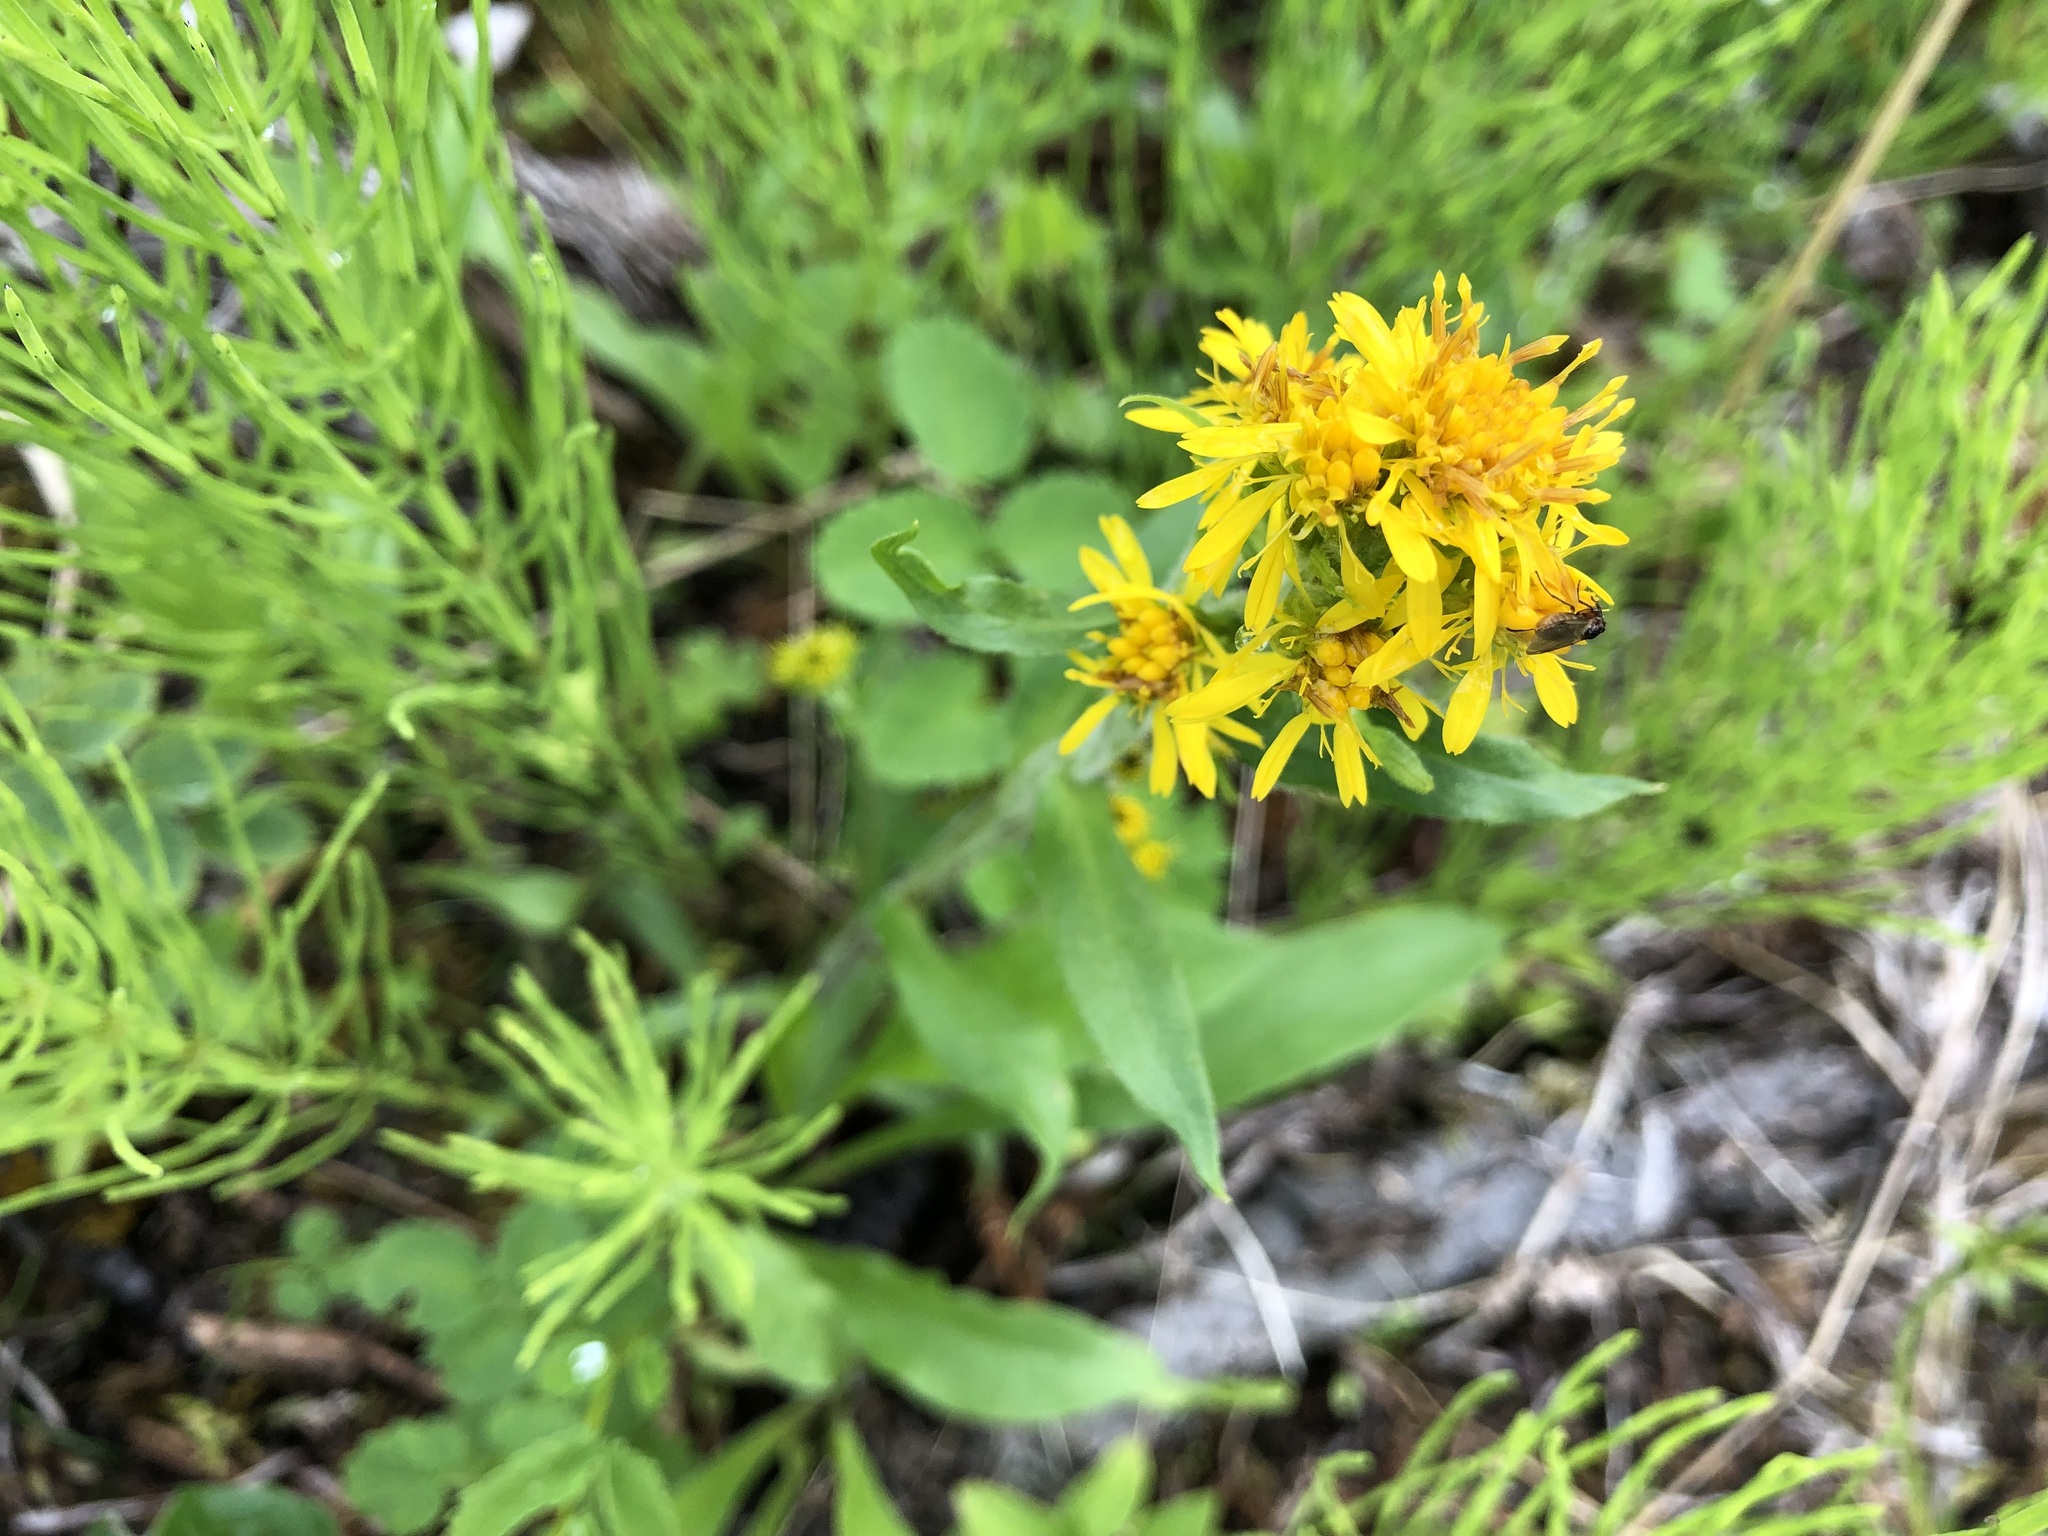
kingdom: Plantae
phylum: Tracheophyta
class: Magnoliopsida
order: Asterales
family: Asteraceae
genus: Solidago
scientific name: Solidago multiradiata
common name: Northern goldenrod
